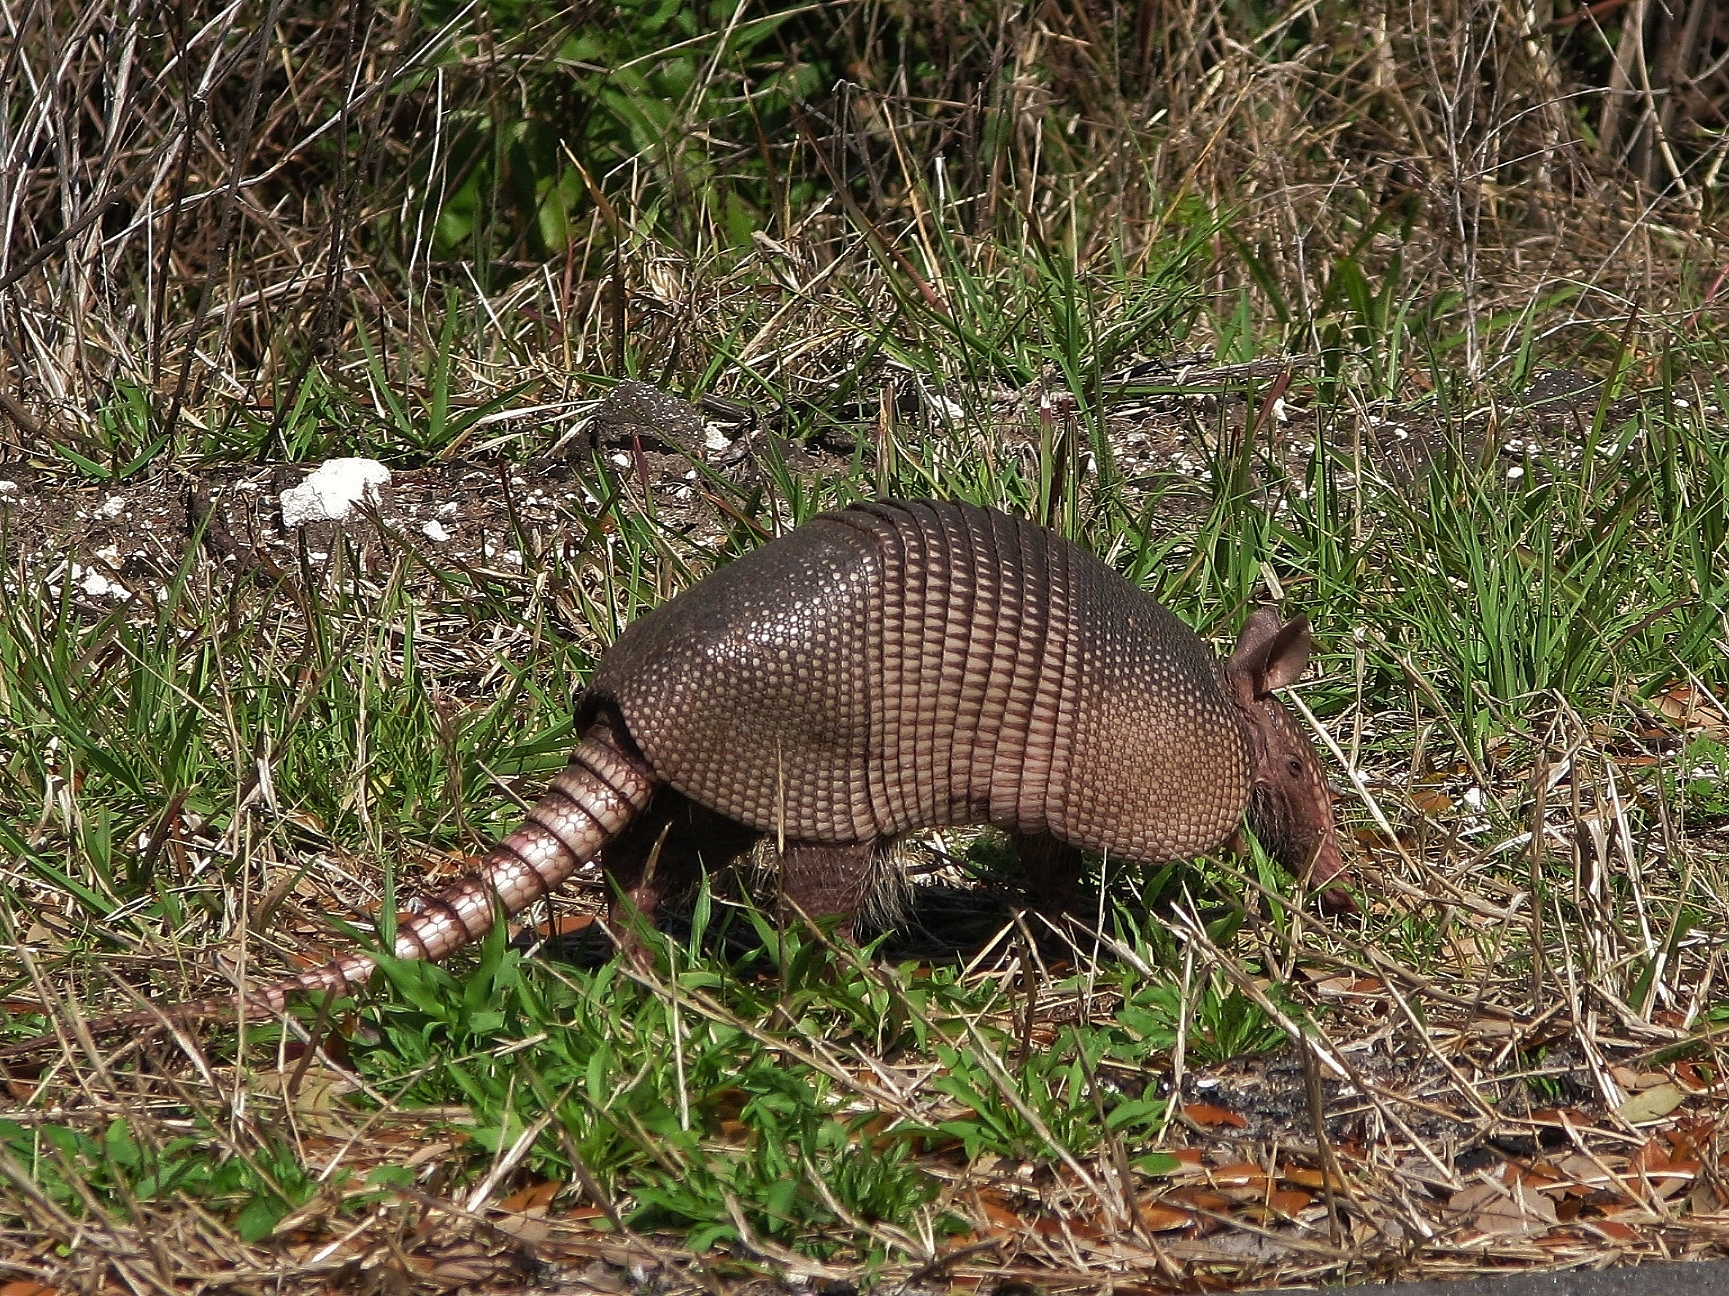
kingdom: Animalia
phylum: Chordata
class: Mammalia
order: Cingulata
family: Dasypodidae
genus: Dasypus
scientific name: Dasypus novemcinctus
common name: Nine-banded armadillo
